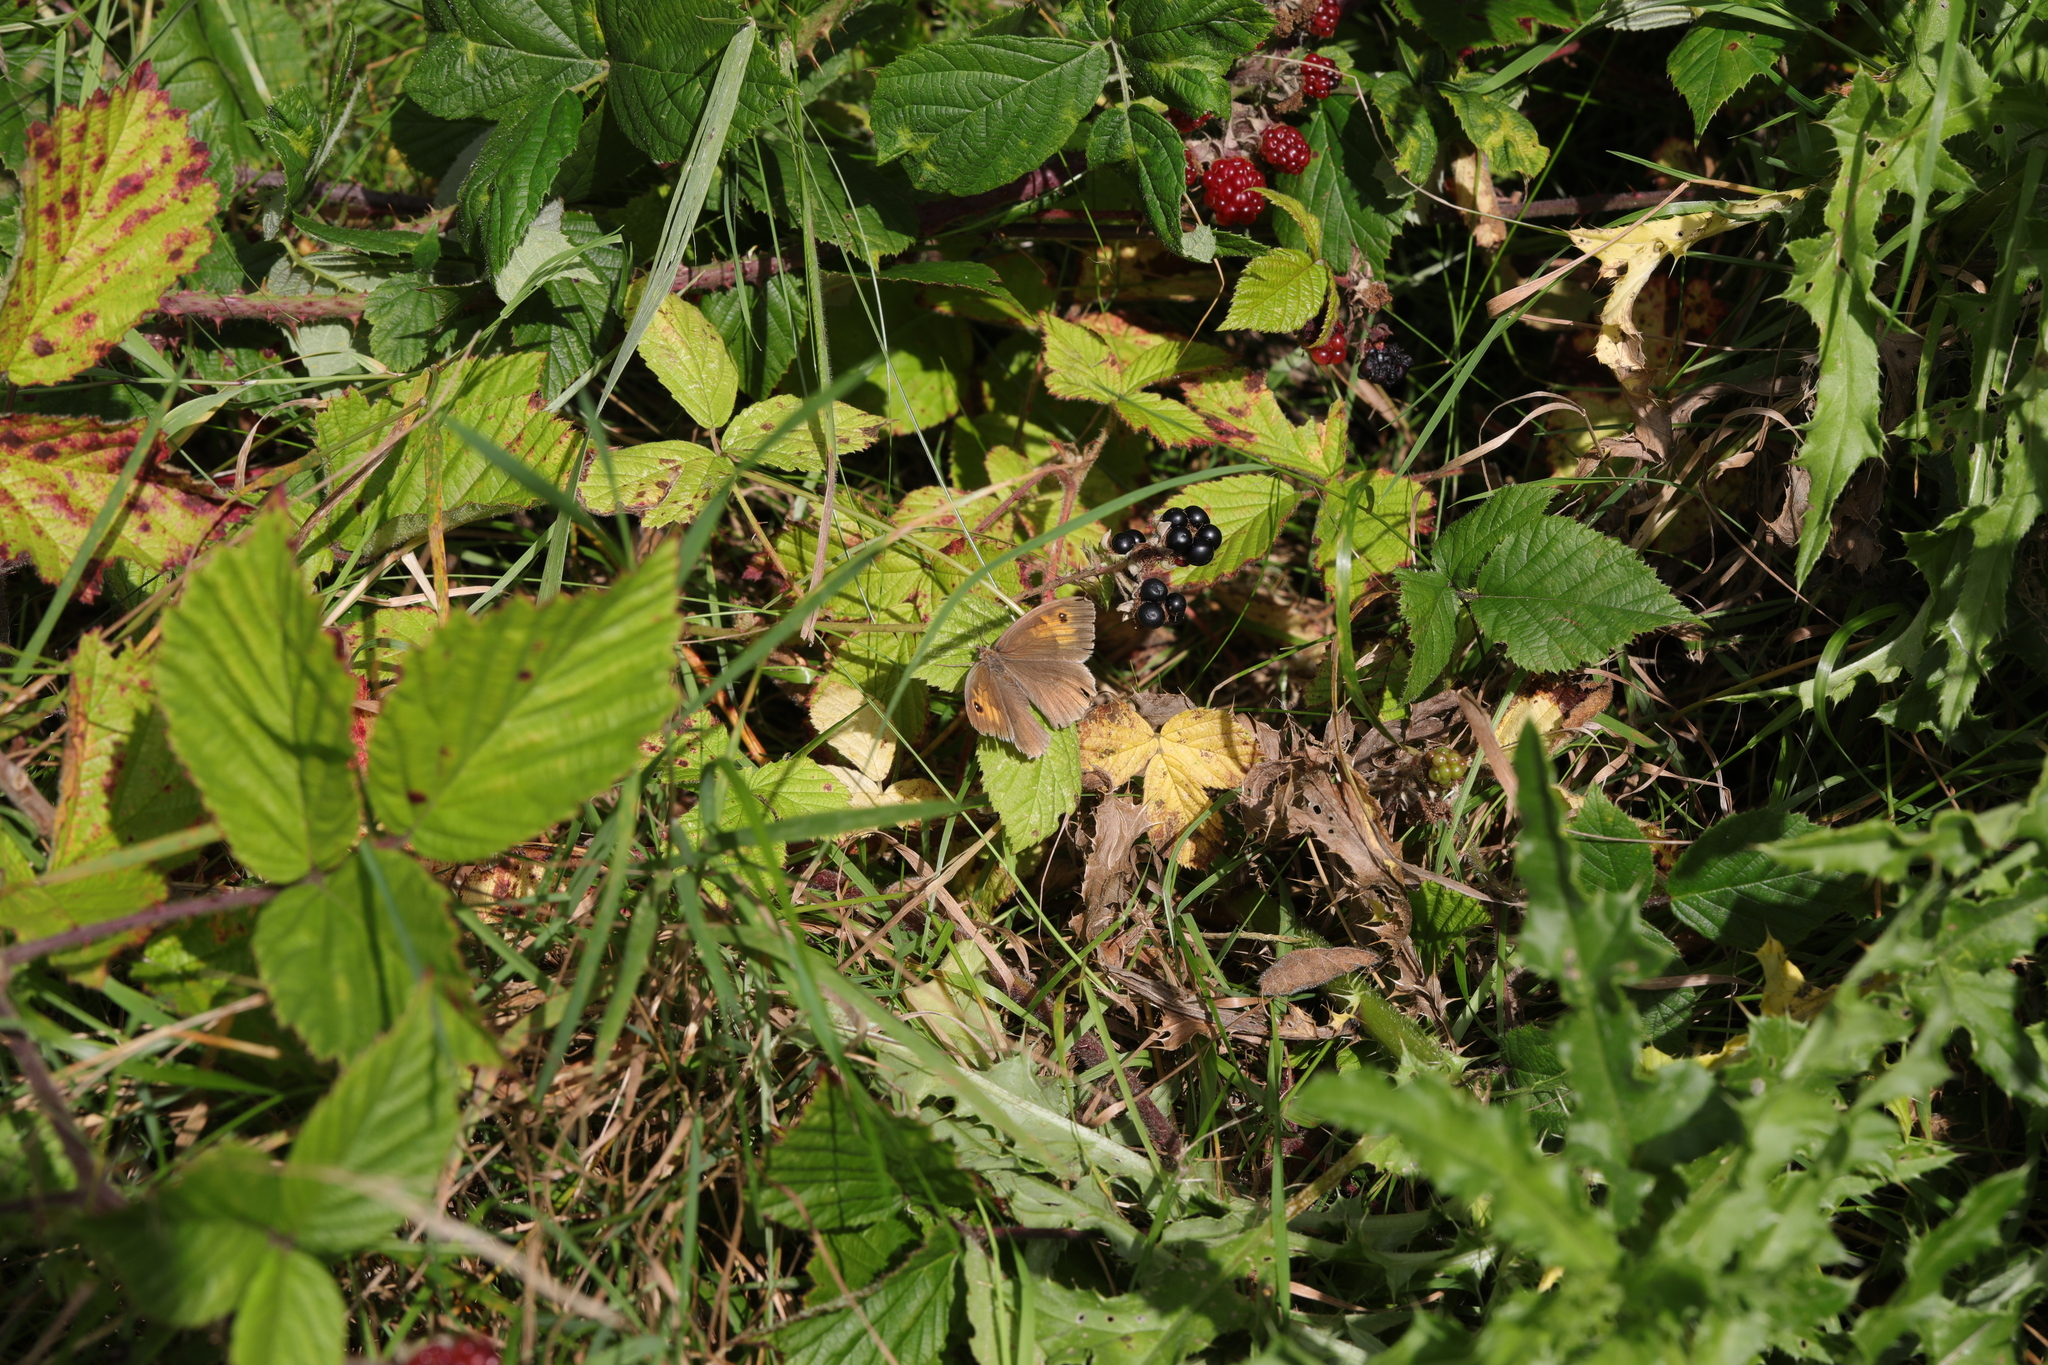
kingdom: Animalia
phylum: Arthropoda
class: Insecta
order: Lepidoptera
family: Nymphalidae
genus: Maniola
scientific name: Maniola jurtina
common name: Meadow brown
